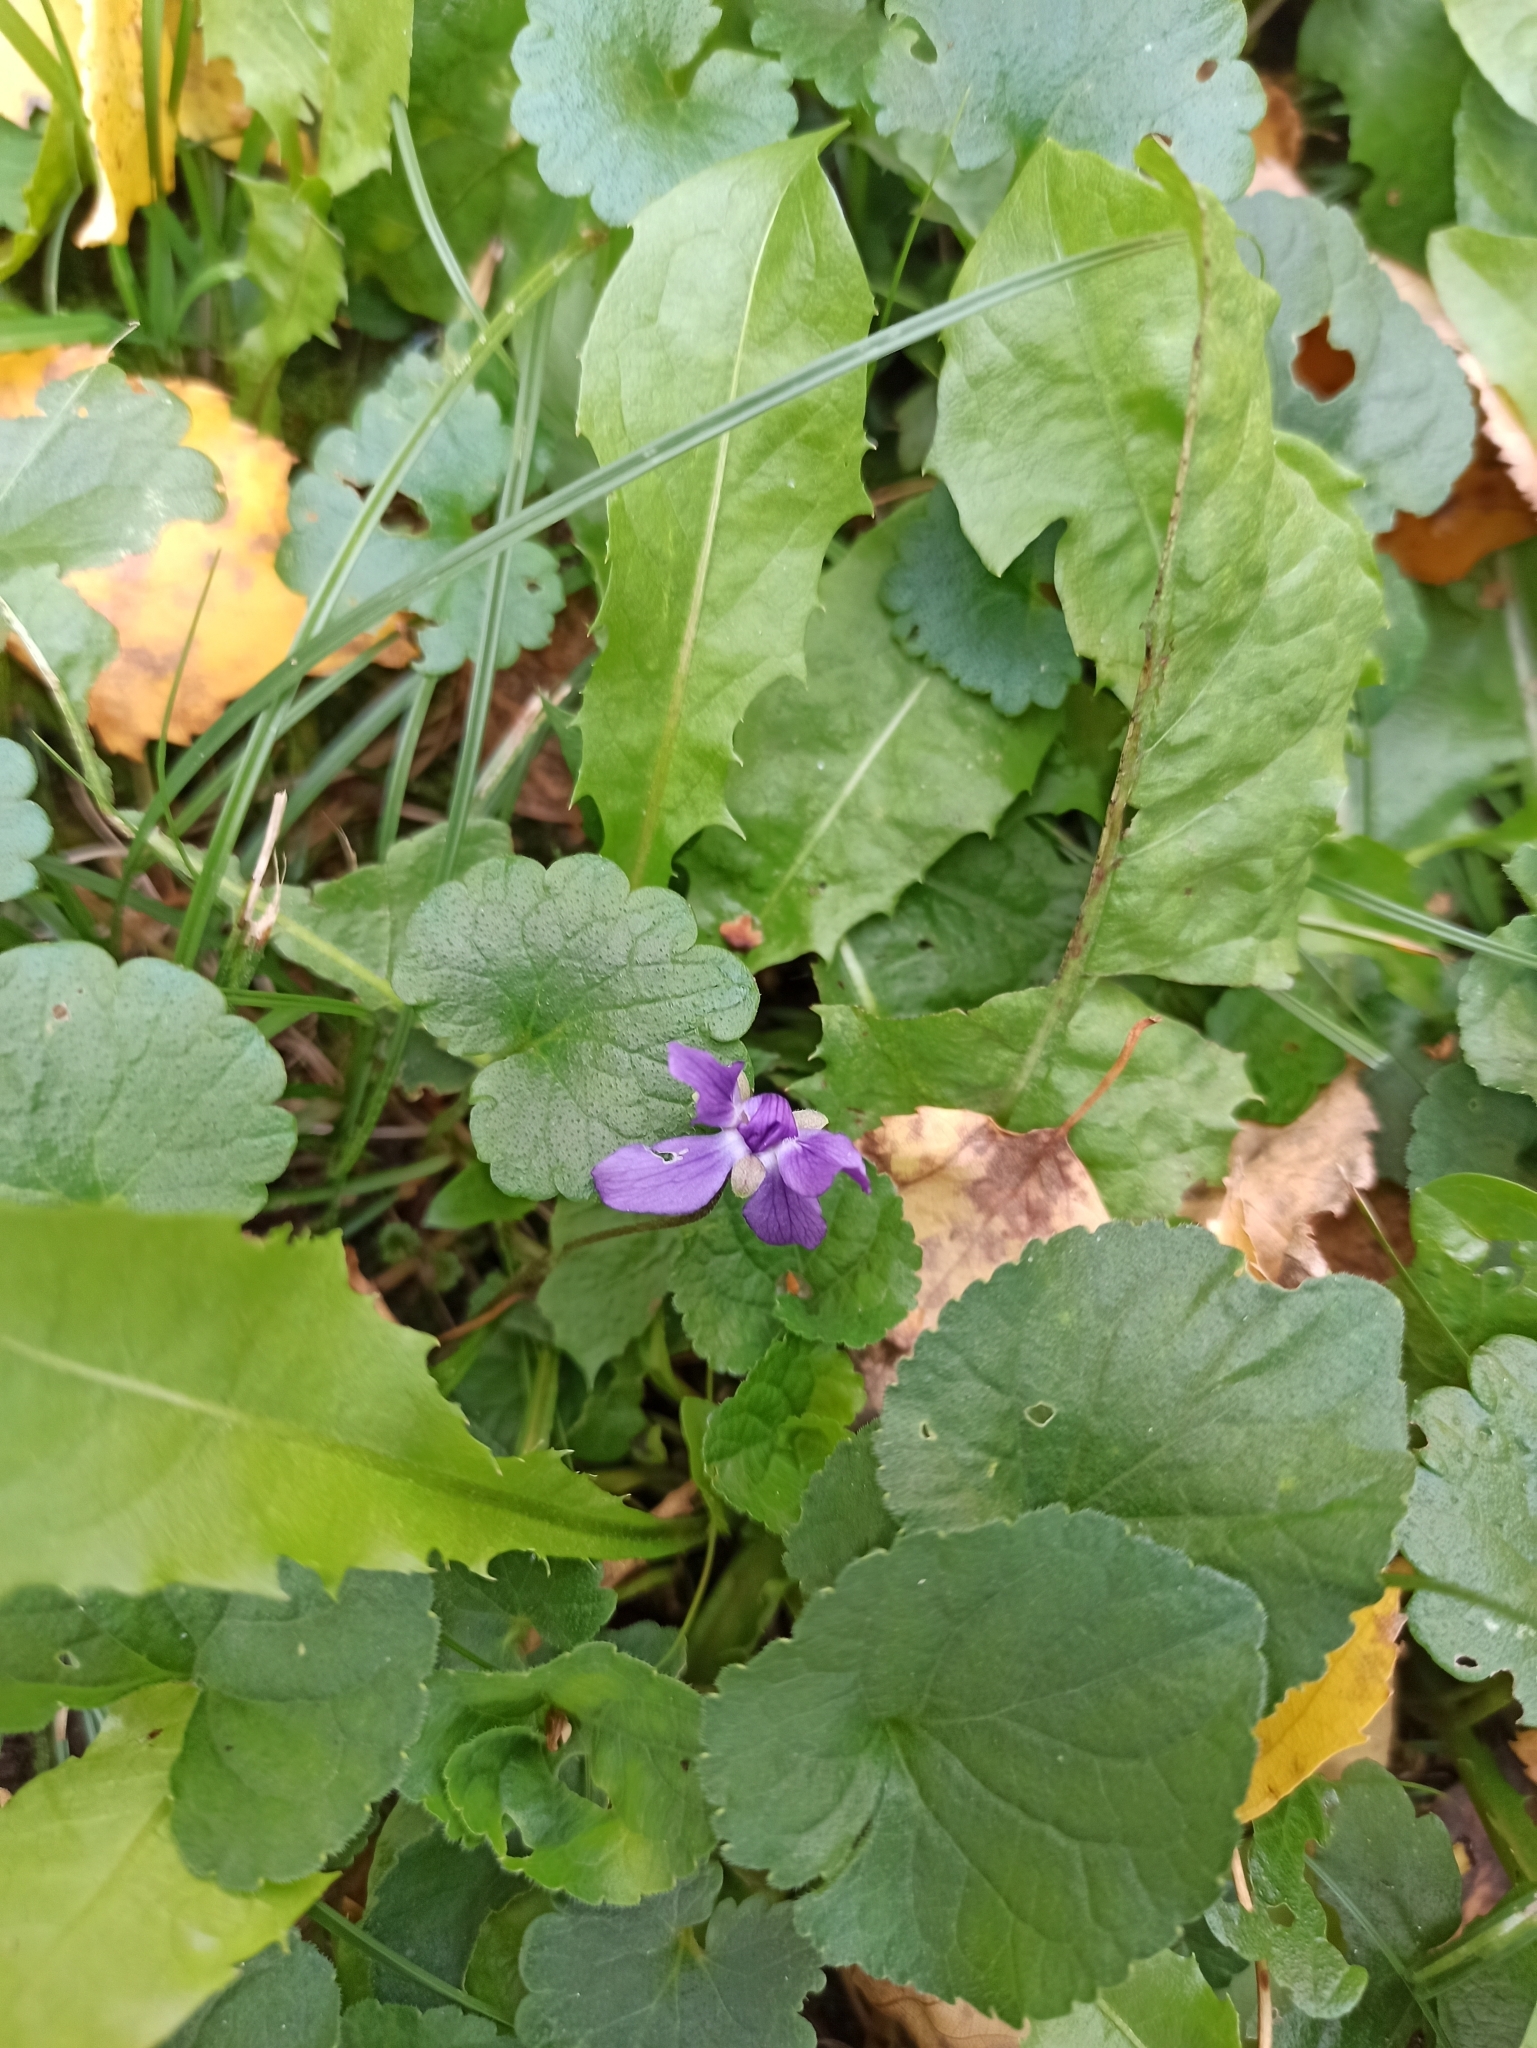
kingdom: Plantae
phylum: Tracheophyta
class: Magnoliopsida
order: Malpighiales
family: Violaceae
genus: Viola
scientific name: Viola odorata
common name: Sweet violet
